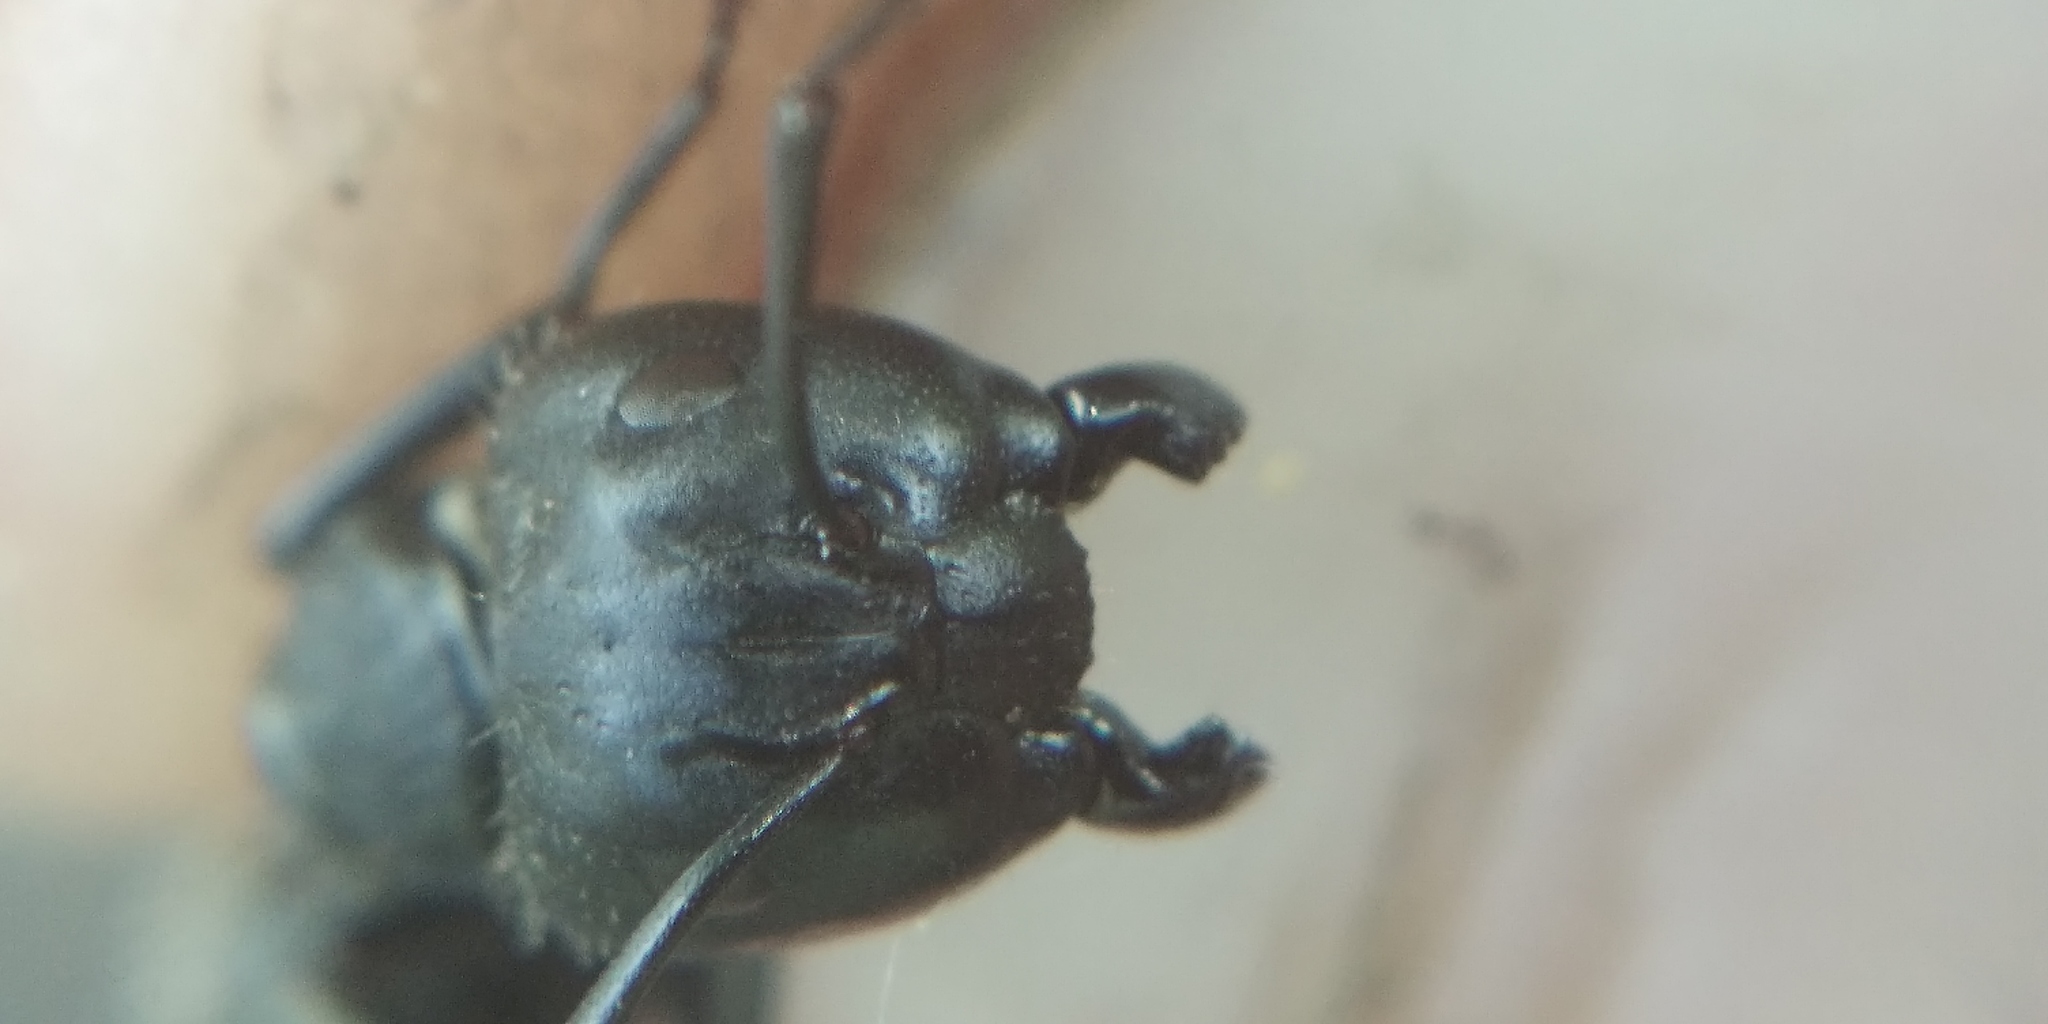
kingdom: Animalia
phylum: Arthropoda
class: Insecta
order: Hymenoptera
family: Formicidae
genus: Camponotus
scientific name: Camponotus vagus
